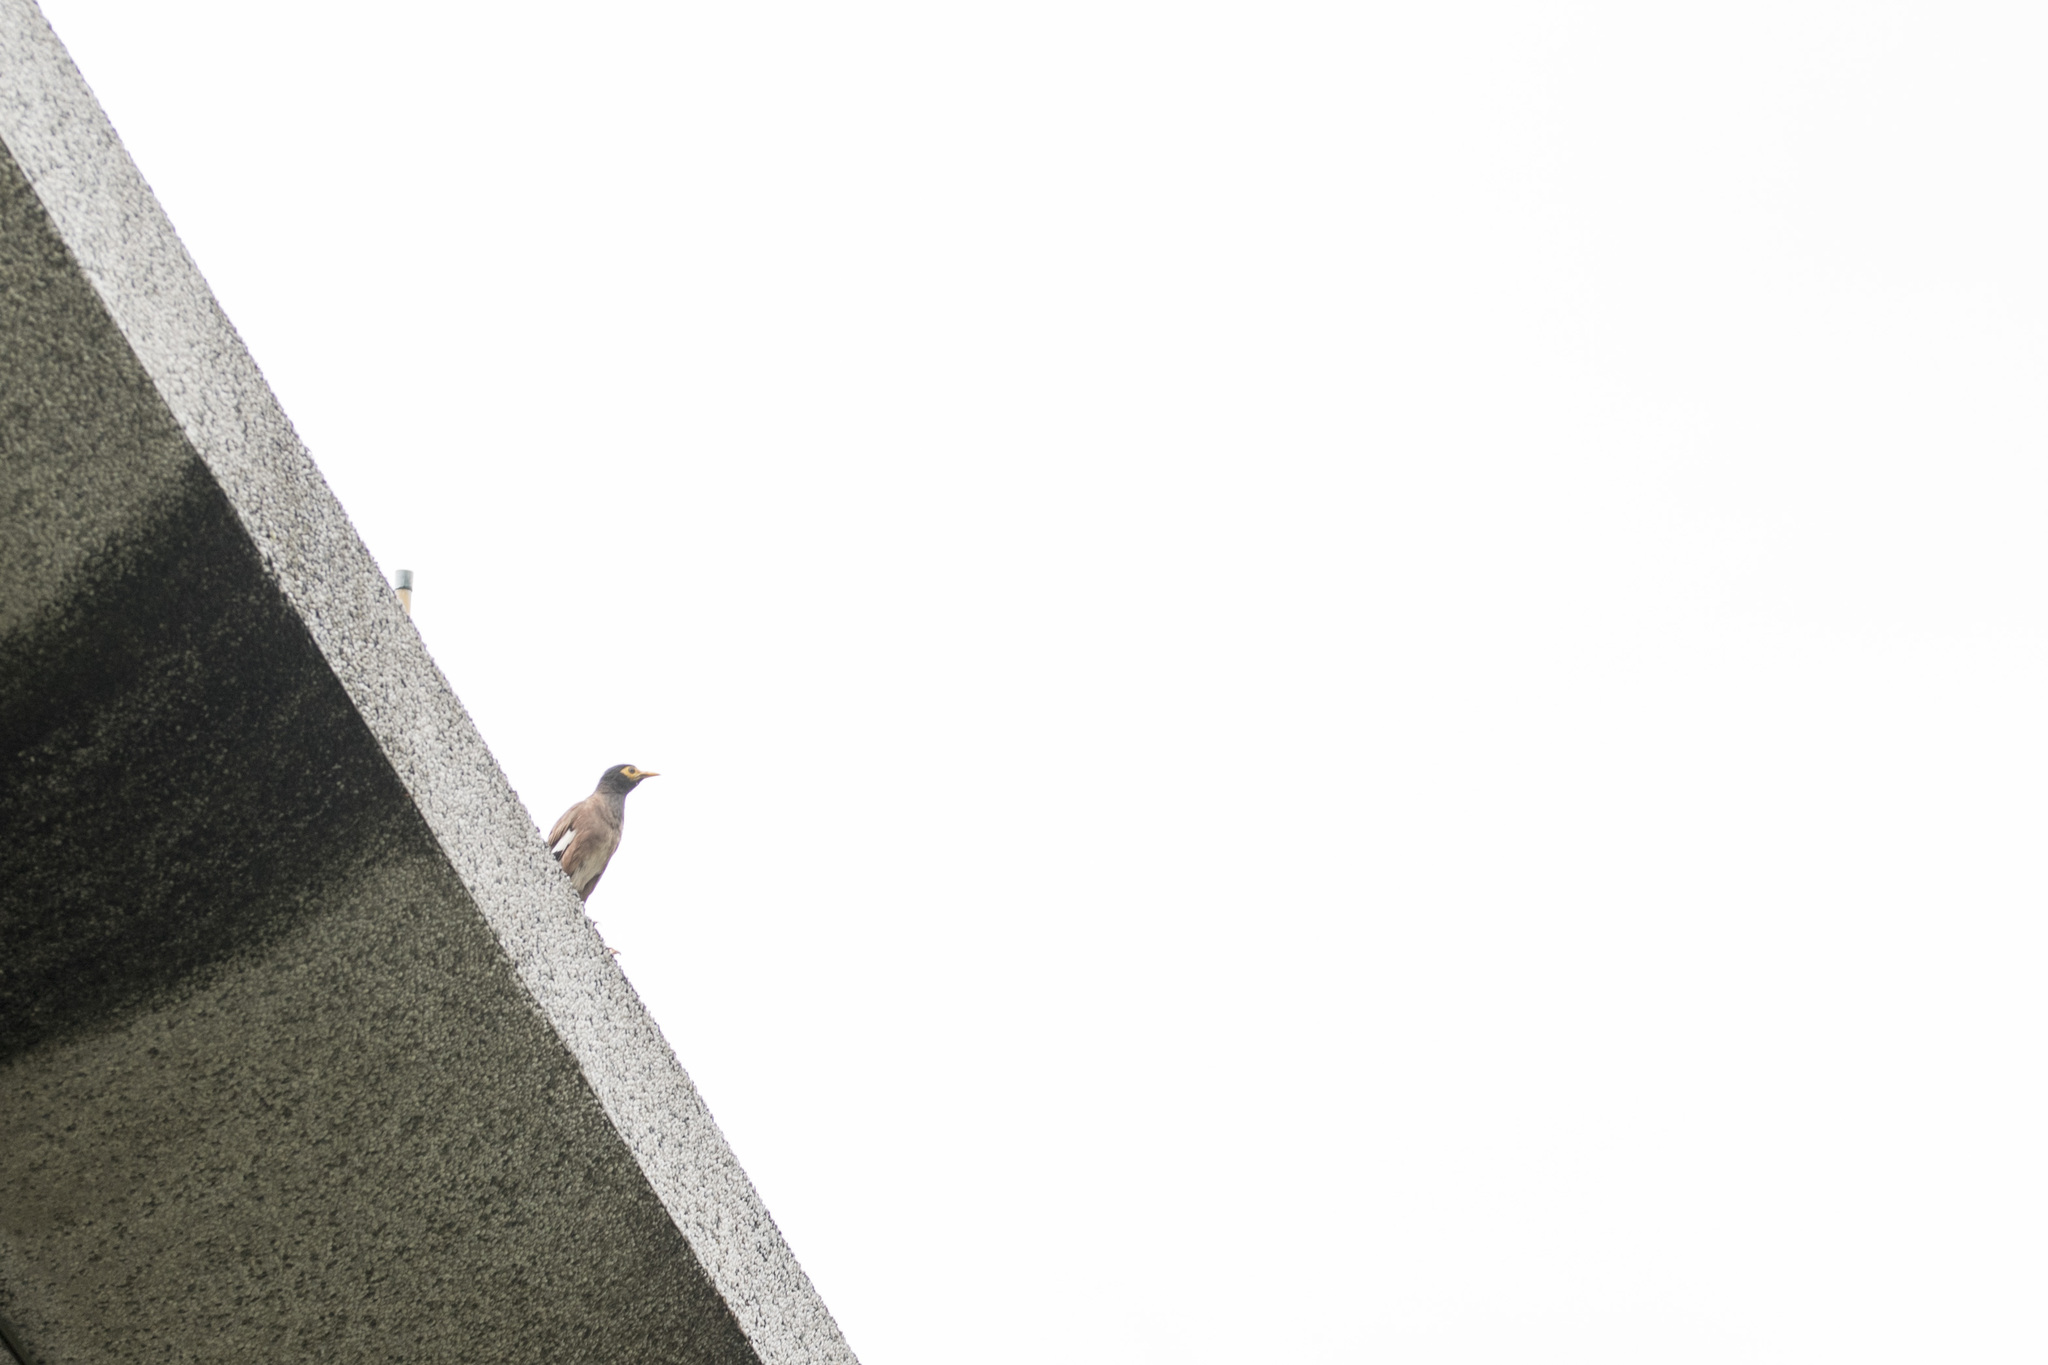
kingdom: Animalia
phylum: Chordata
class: Aves
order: Passeriformes
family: Sturnidae
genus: Acridotheres
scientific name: Acridotheres tristis
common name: Common myna
